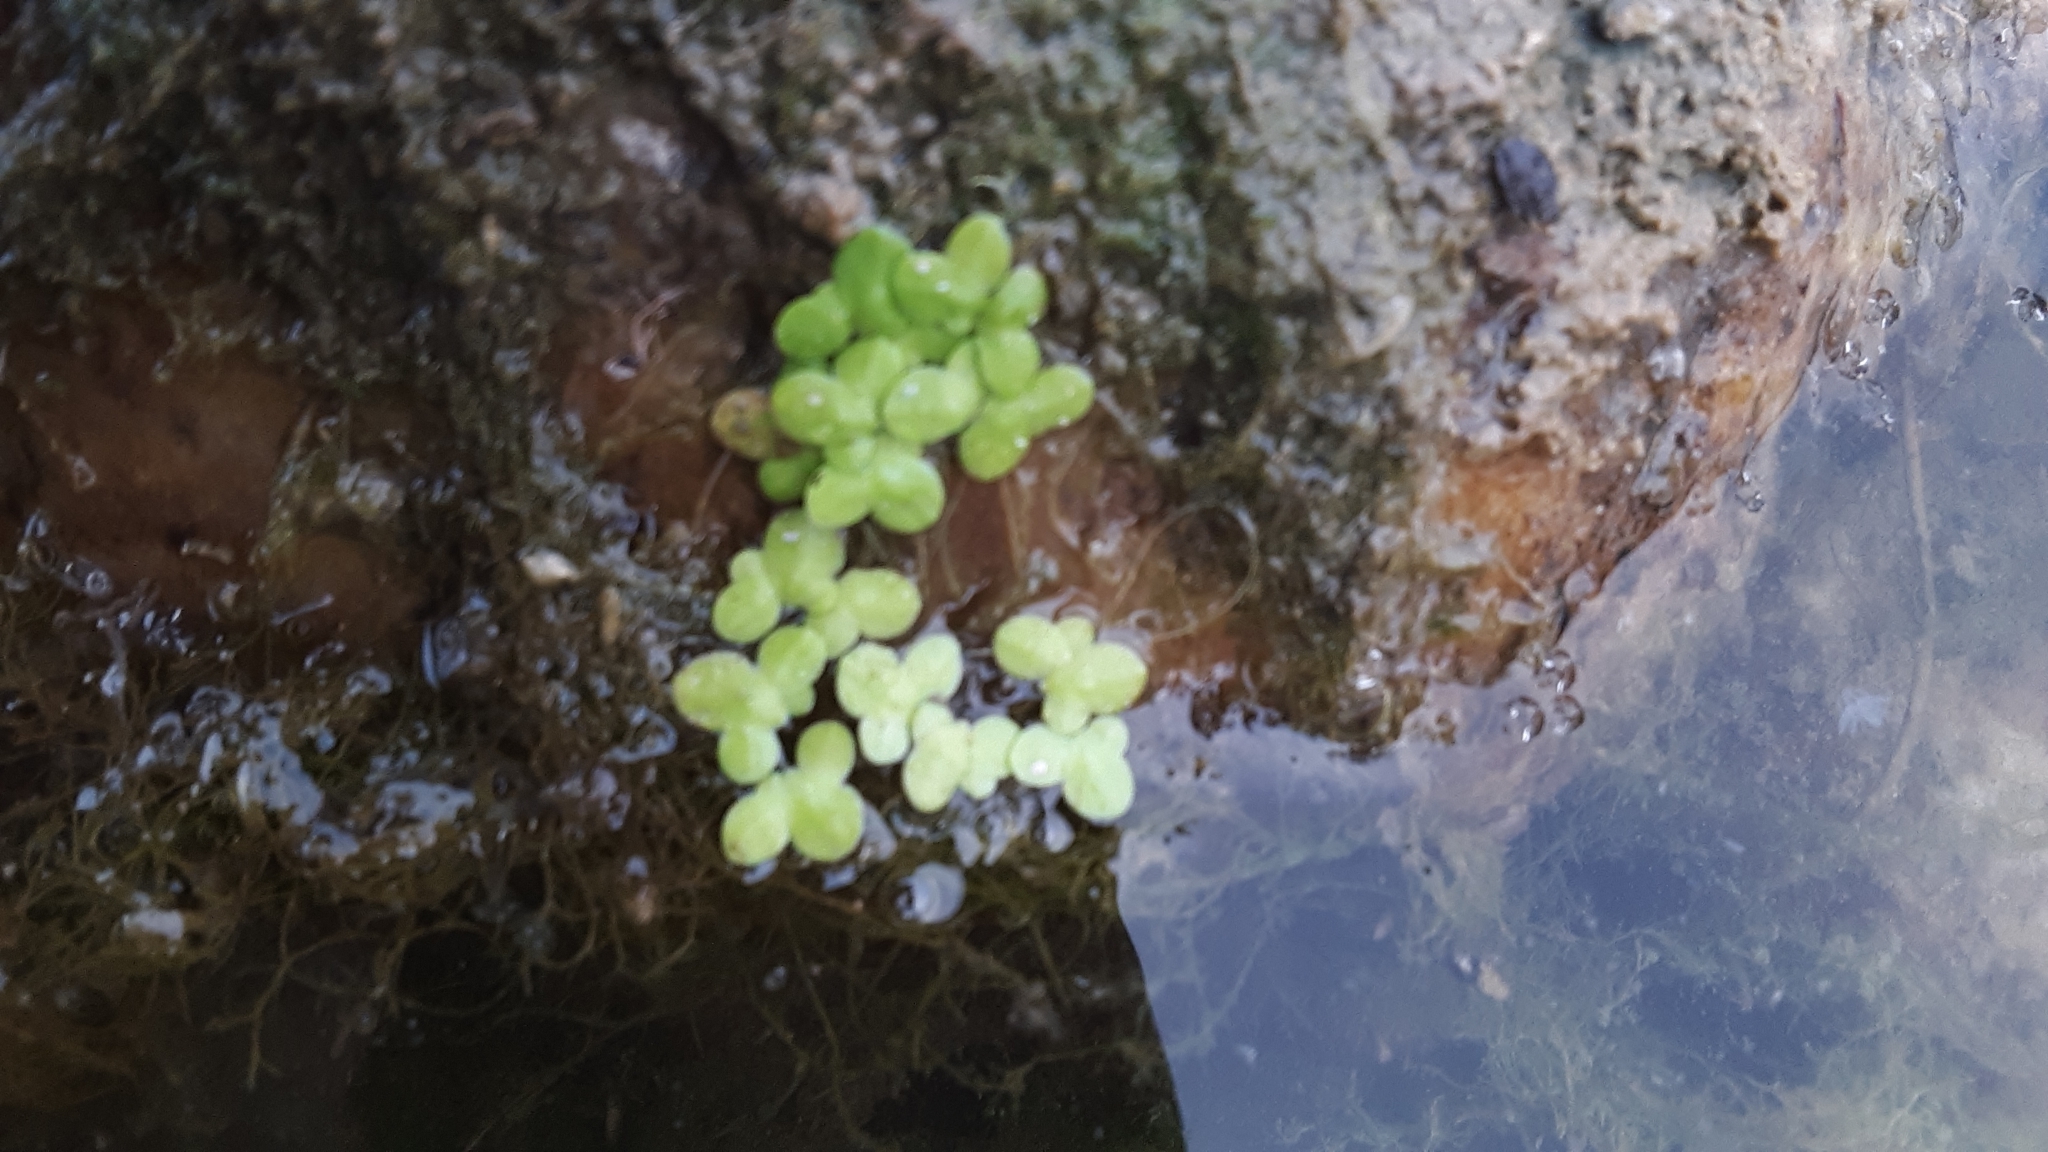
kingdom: Plantae
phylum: Tracheophyta
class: Liliopsida
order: Alismatales
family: Araceae
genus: Lemna
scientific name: Lemna minor
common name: Common duckweed
